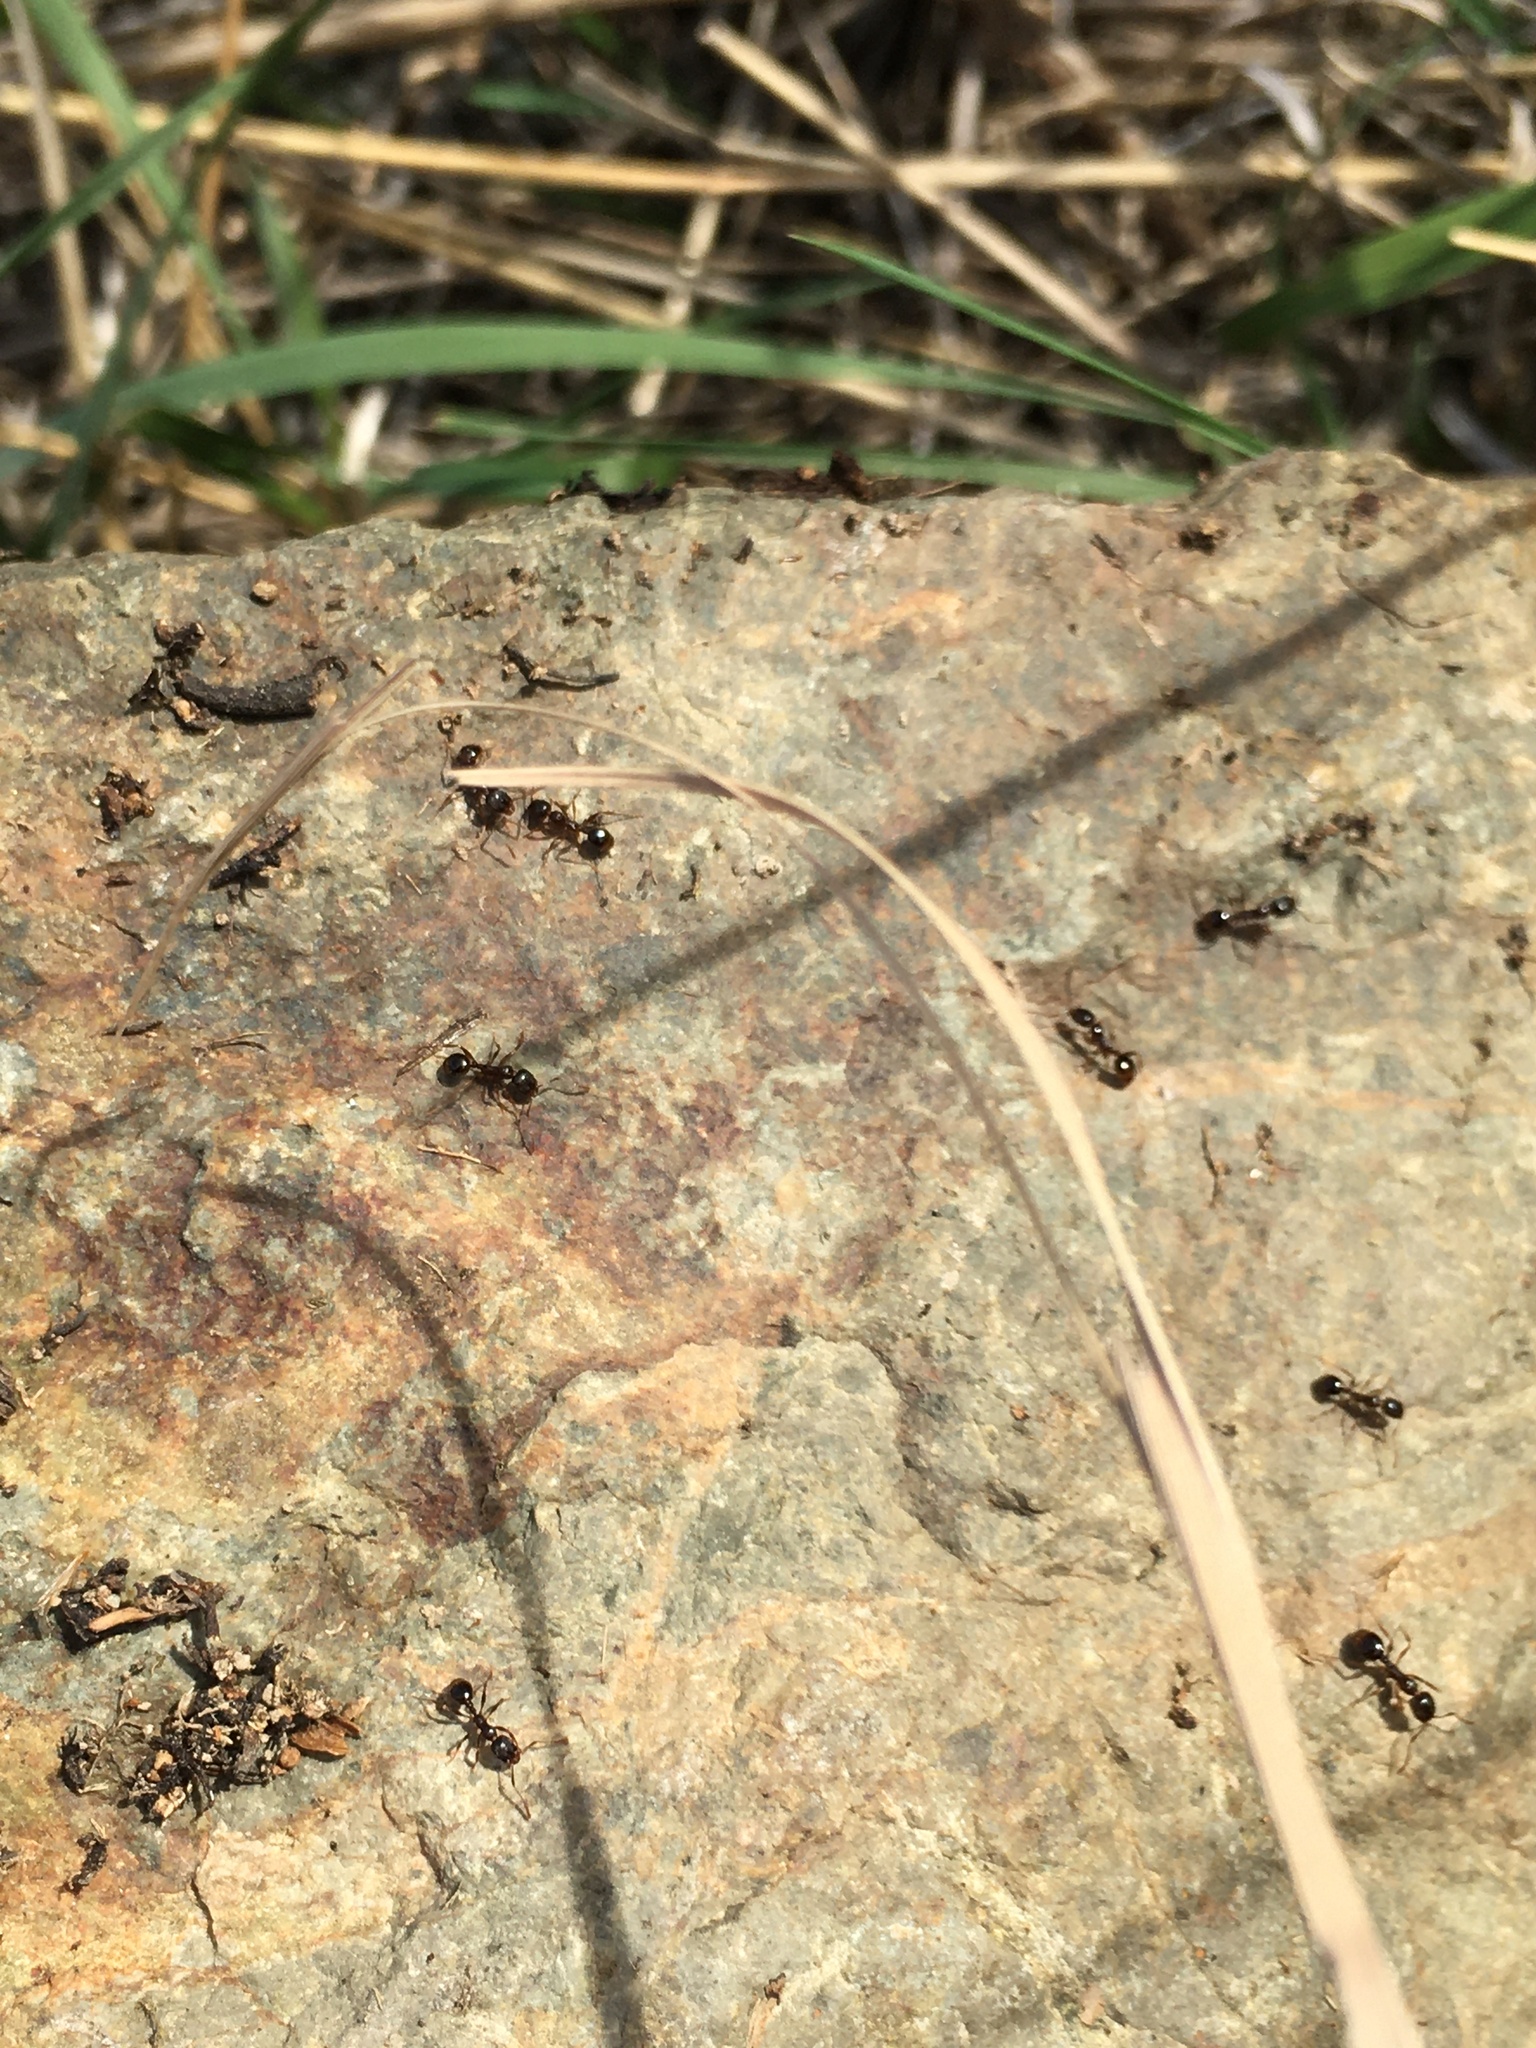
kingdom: Animalia
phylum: Arthropoda
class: Insecta
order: Hymenoptera
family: Formicidae
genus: Aphaenogaster
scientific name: Aphaenogaster occidentalis
